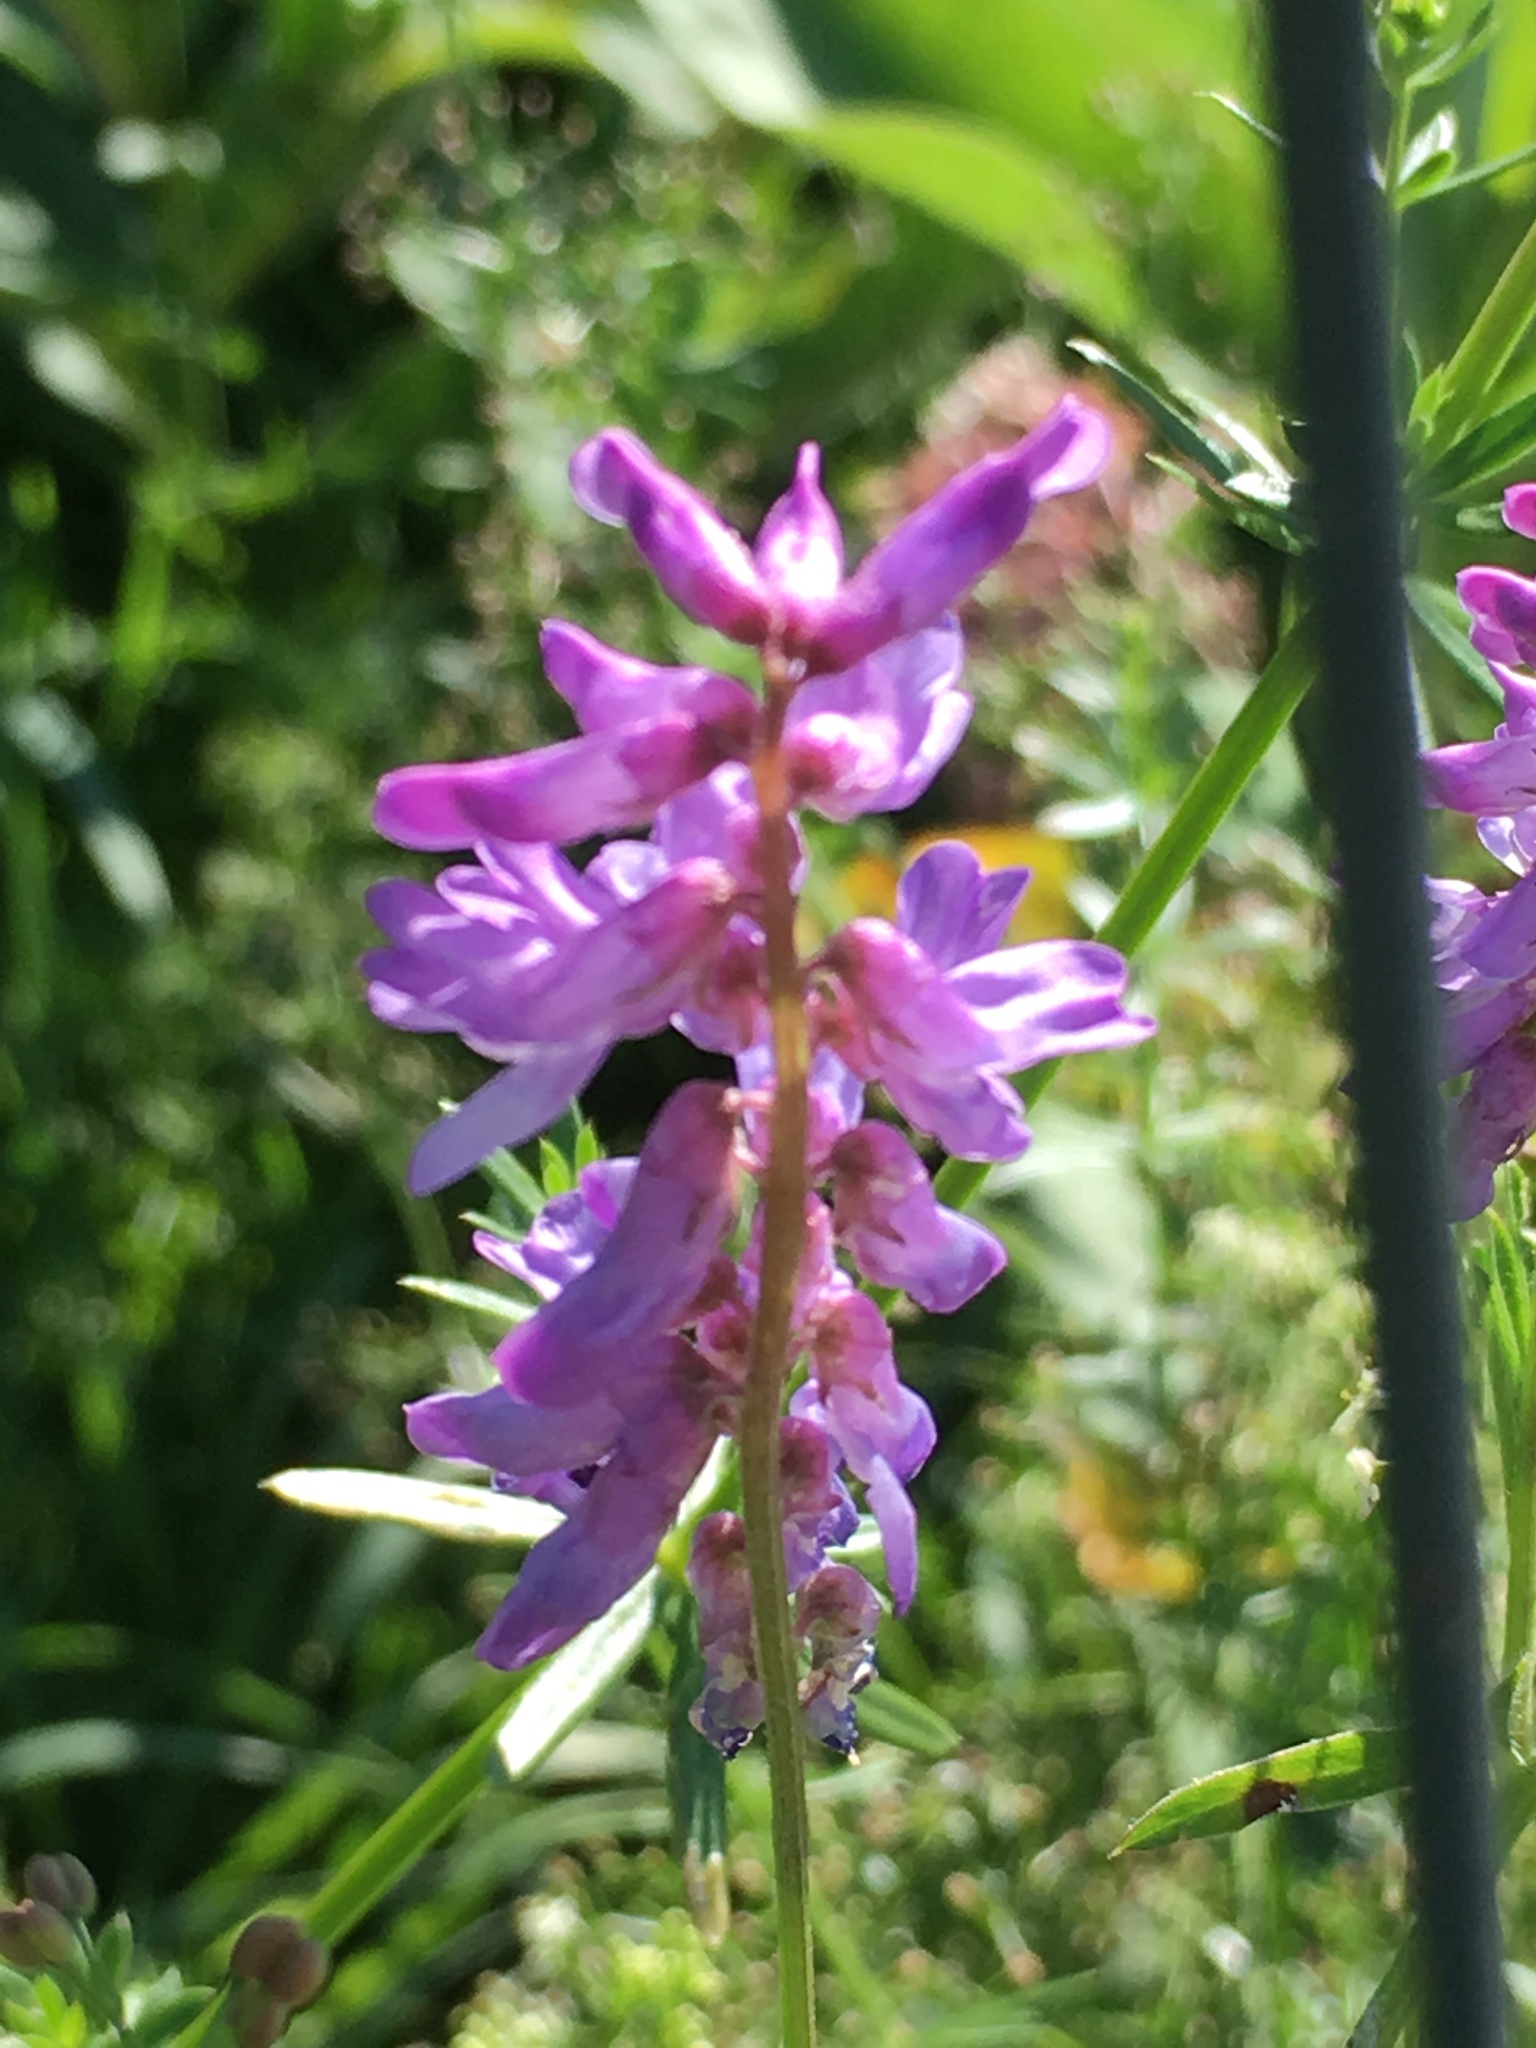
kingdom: Plantae
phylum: Tracheophyta
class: Magnoliopsida
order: Fabales
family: Fabaceae
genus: Vicia
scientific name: Vicia cracca
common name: Bird vetch
